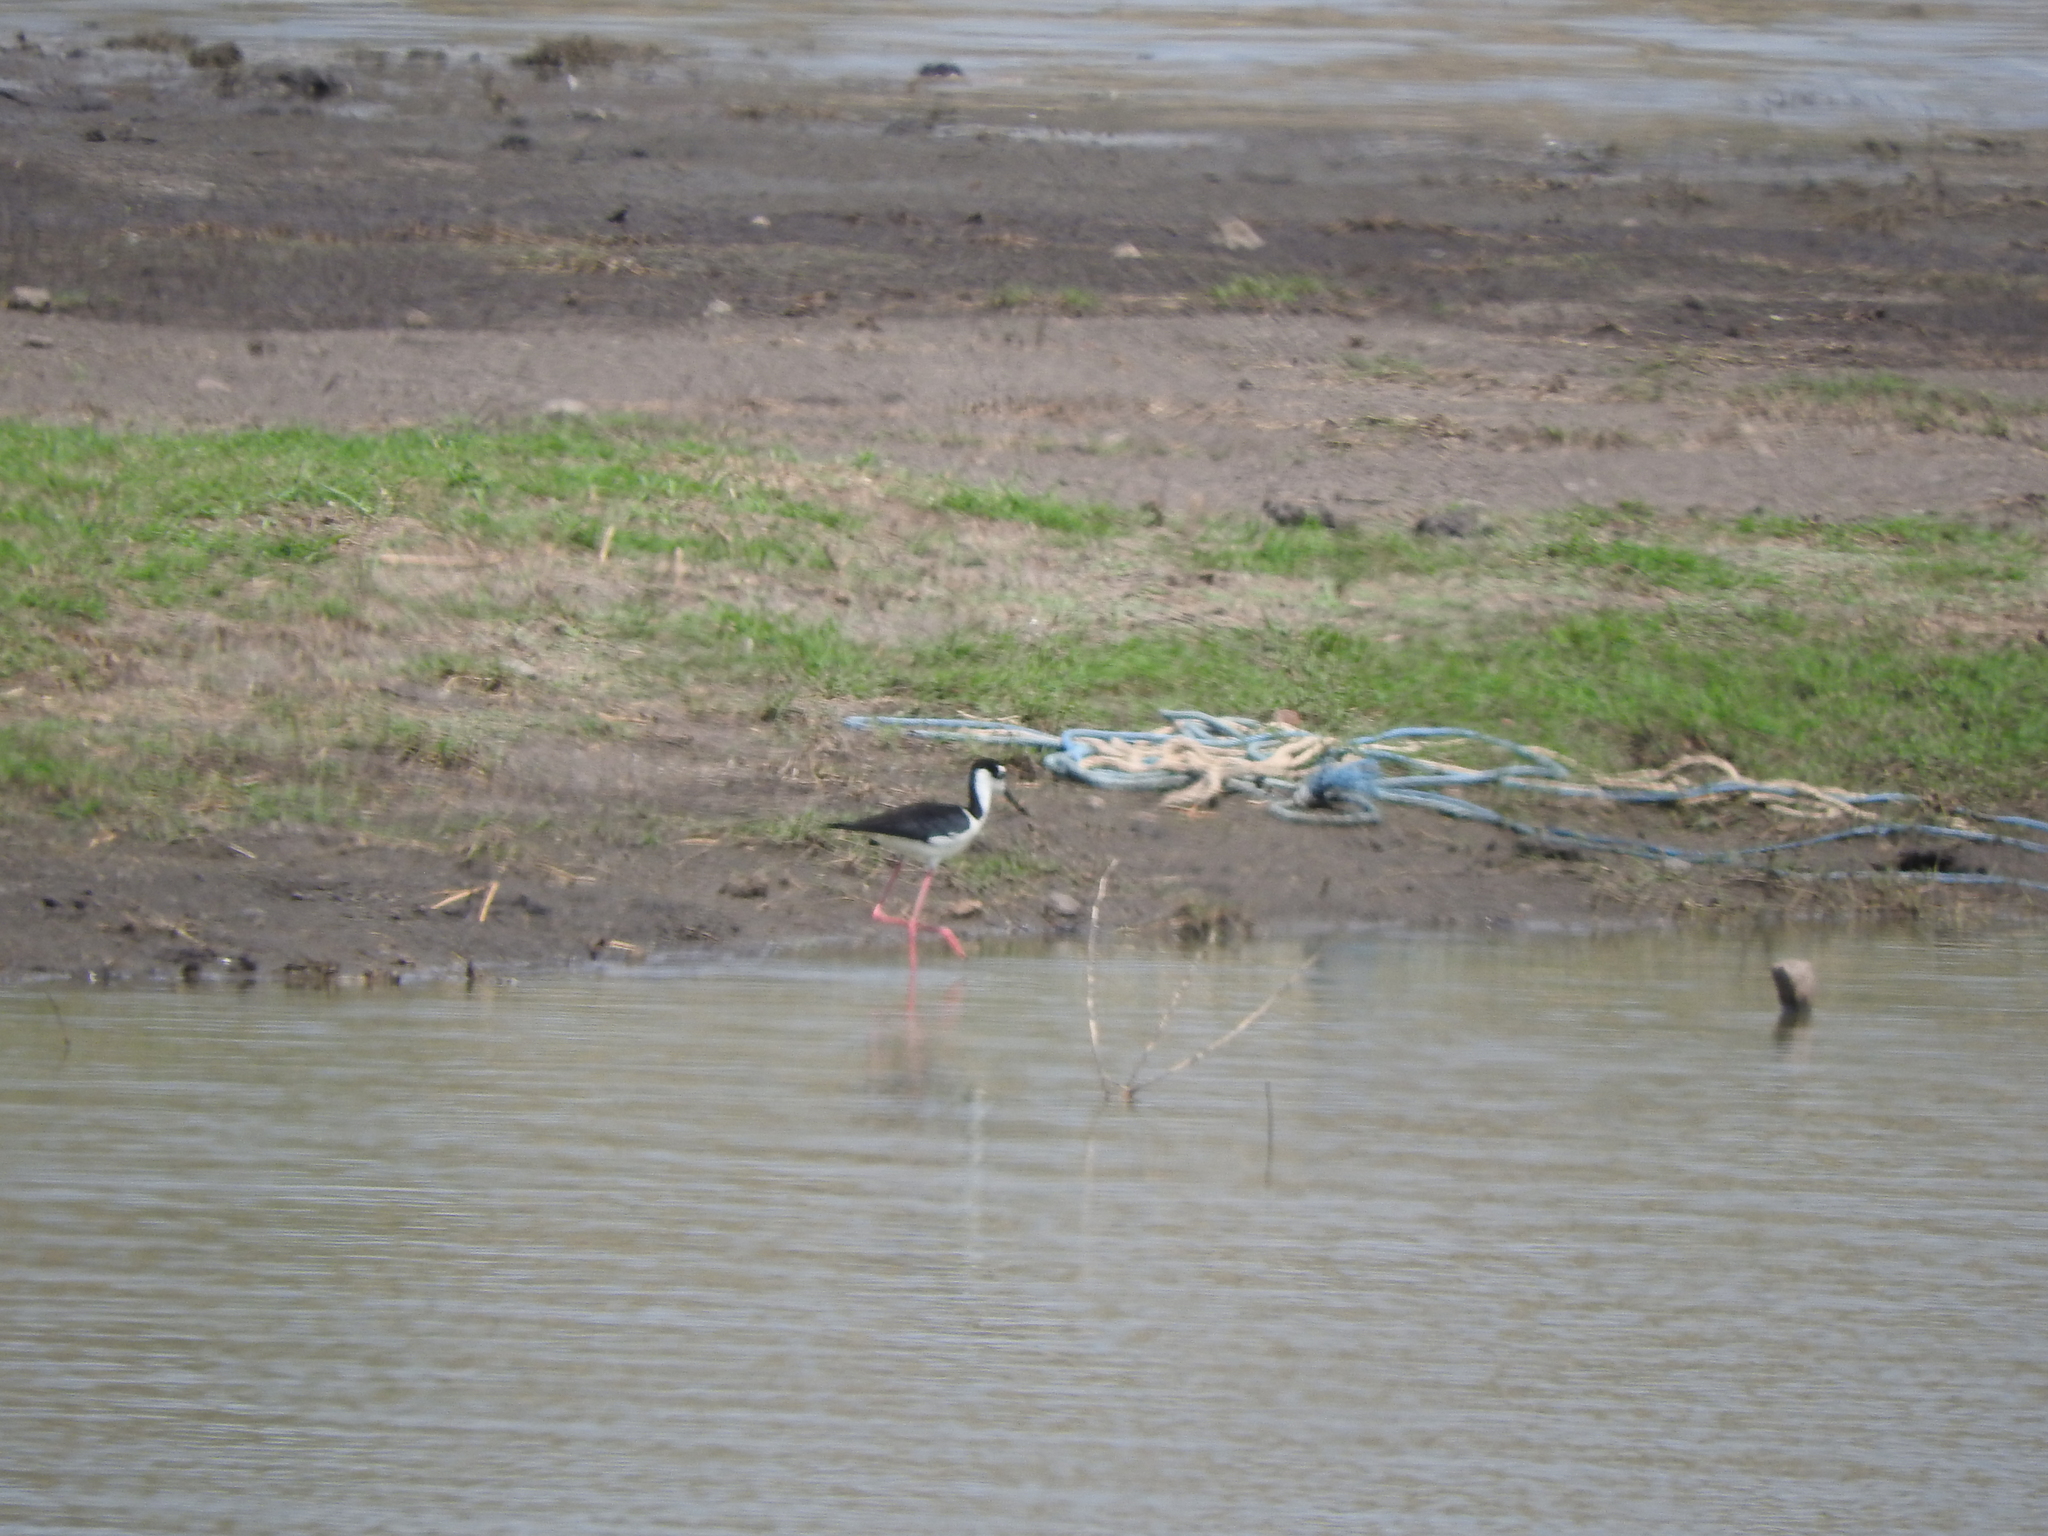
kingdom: Animalia
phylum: Chordata
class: Aves
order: Charadriiformes
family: Recurvirostridae
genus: Himantopus
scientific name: Himantopus mexicanus
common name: Black-necked stilt
